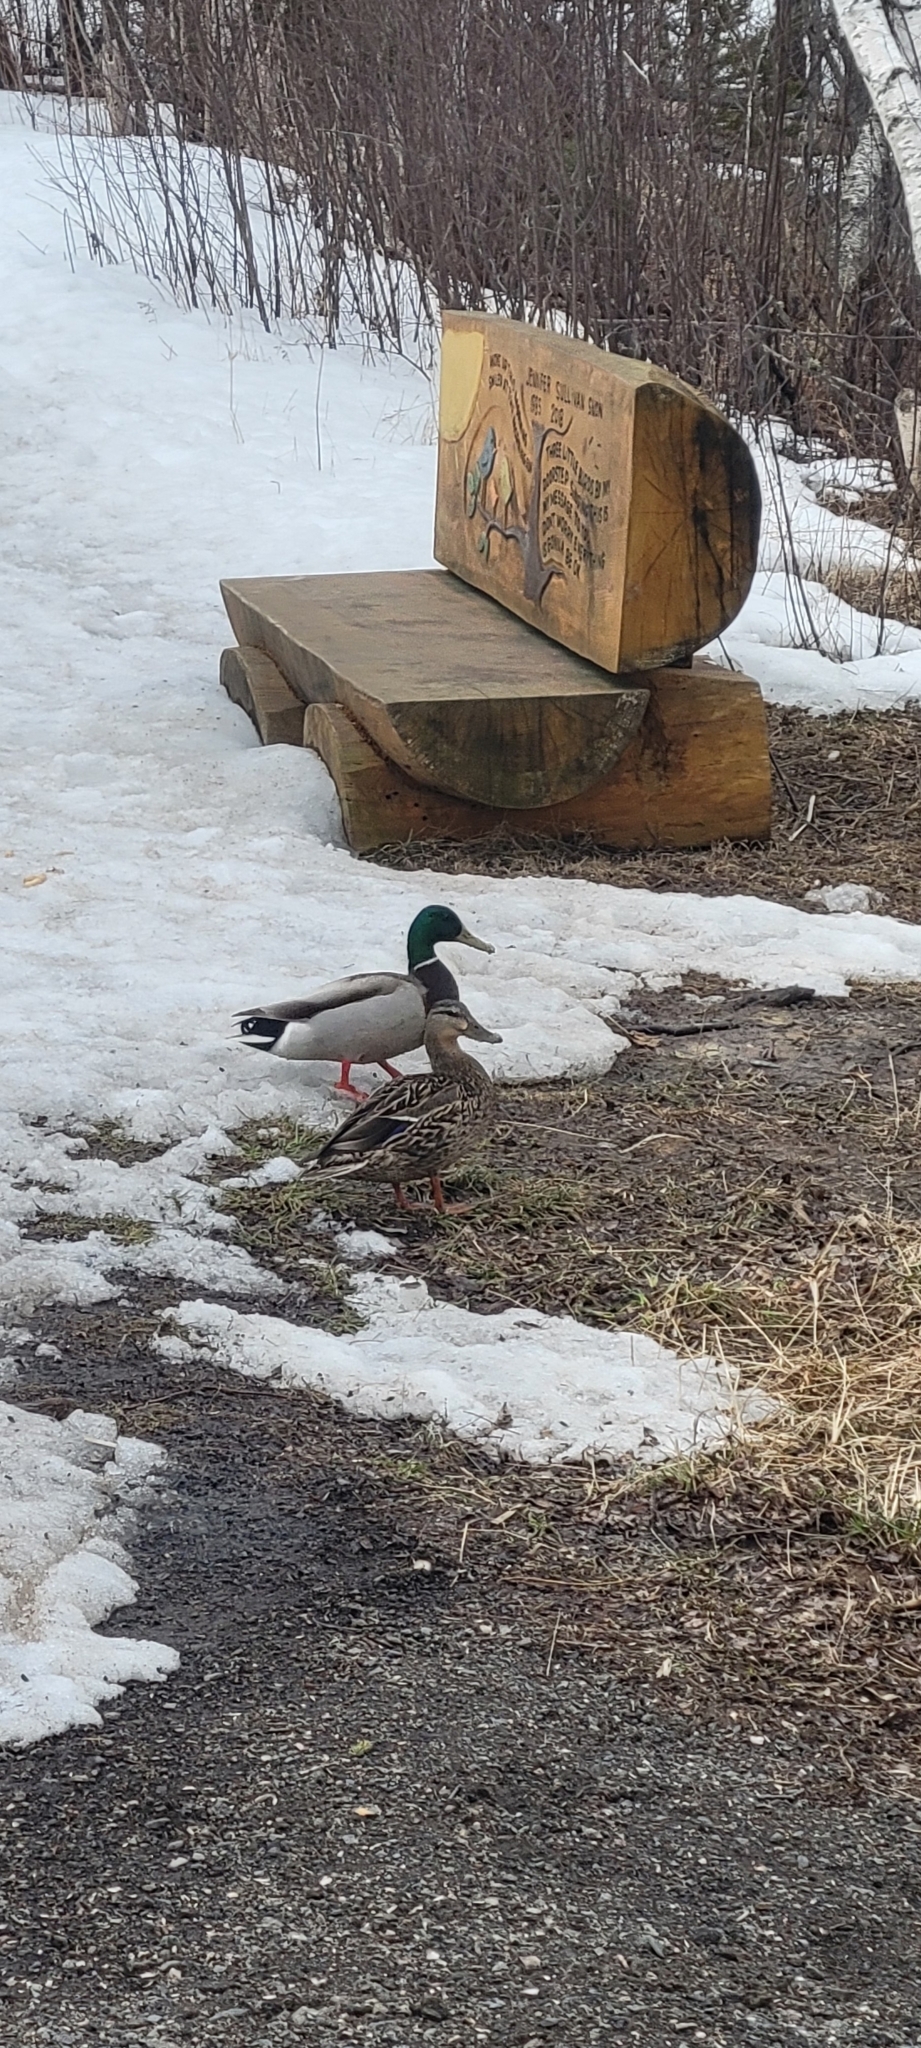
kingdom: Animalia
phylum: Chordata
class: Aves
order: Anseriformes
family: Anatidae
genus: Anas
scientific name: Anas platyrhynchos
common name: Mallard
